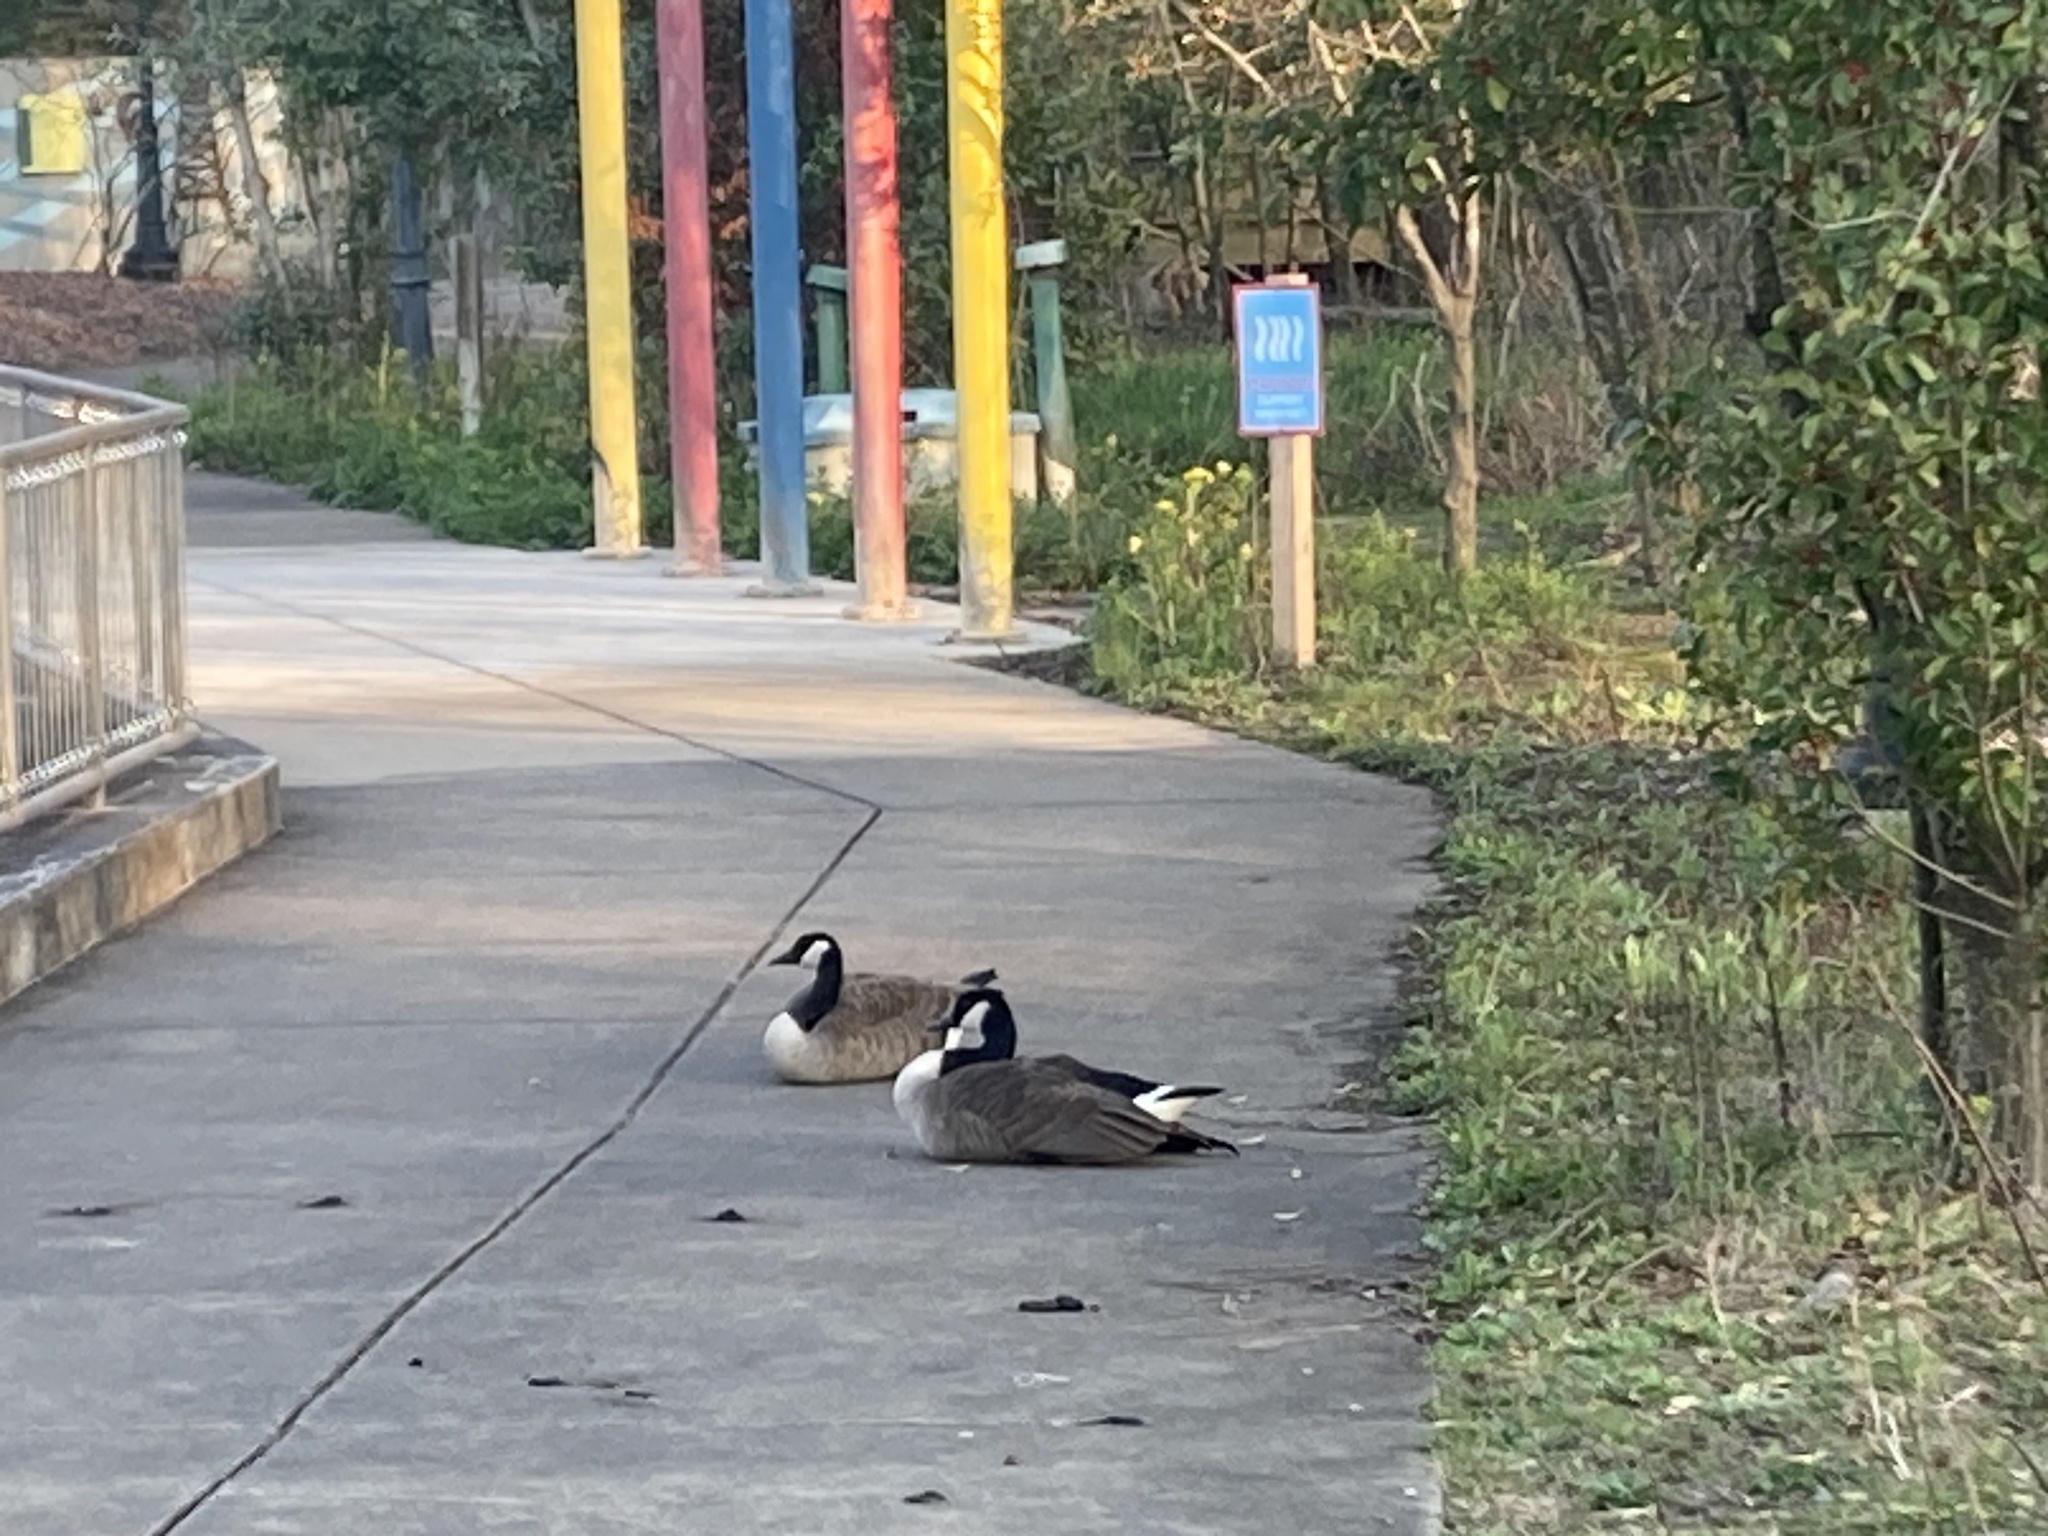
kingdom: Animalia
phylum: Chordata
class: Aves
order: Anseriformes
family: Anatidae
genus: Branta
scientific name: Branta canadensis
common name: Canada goose
